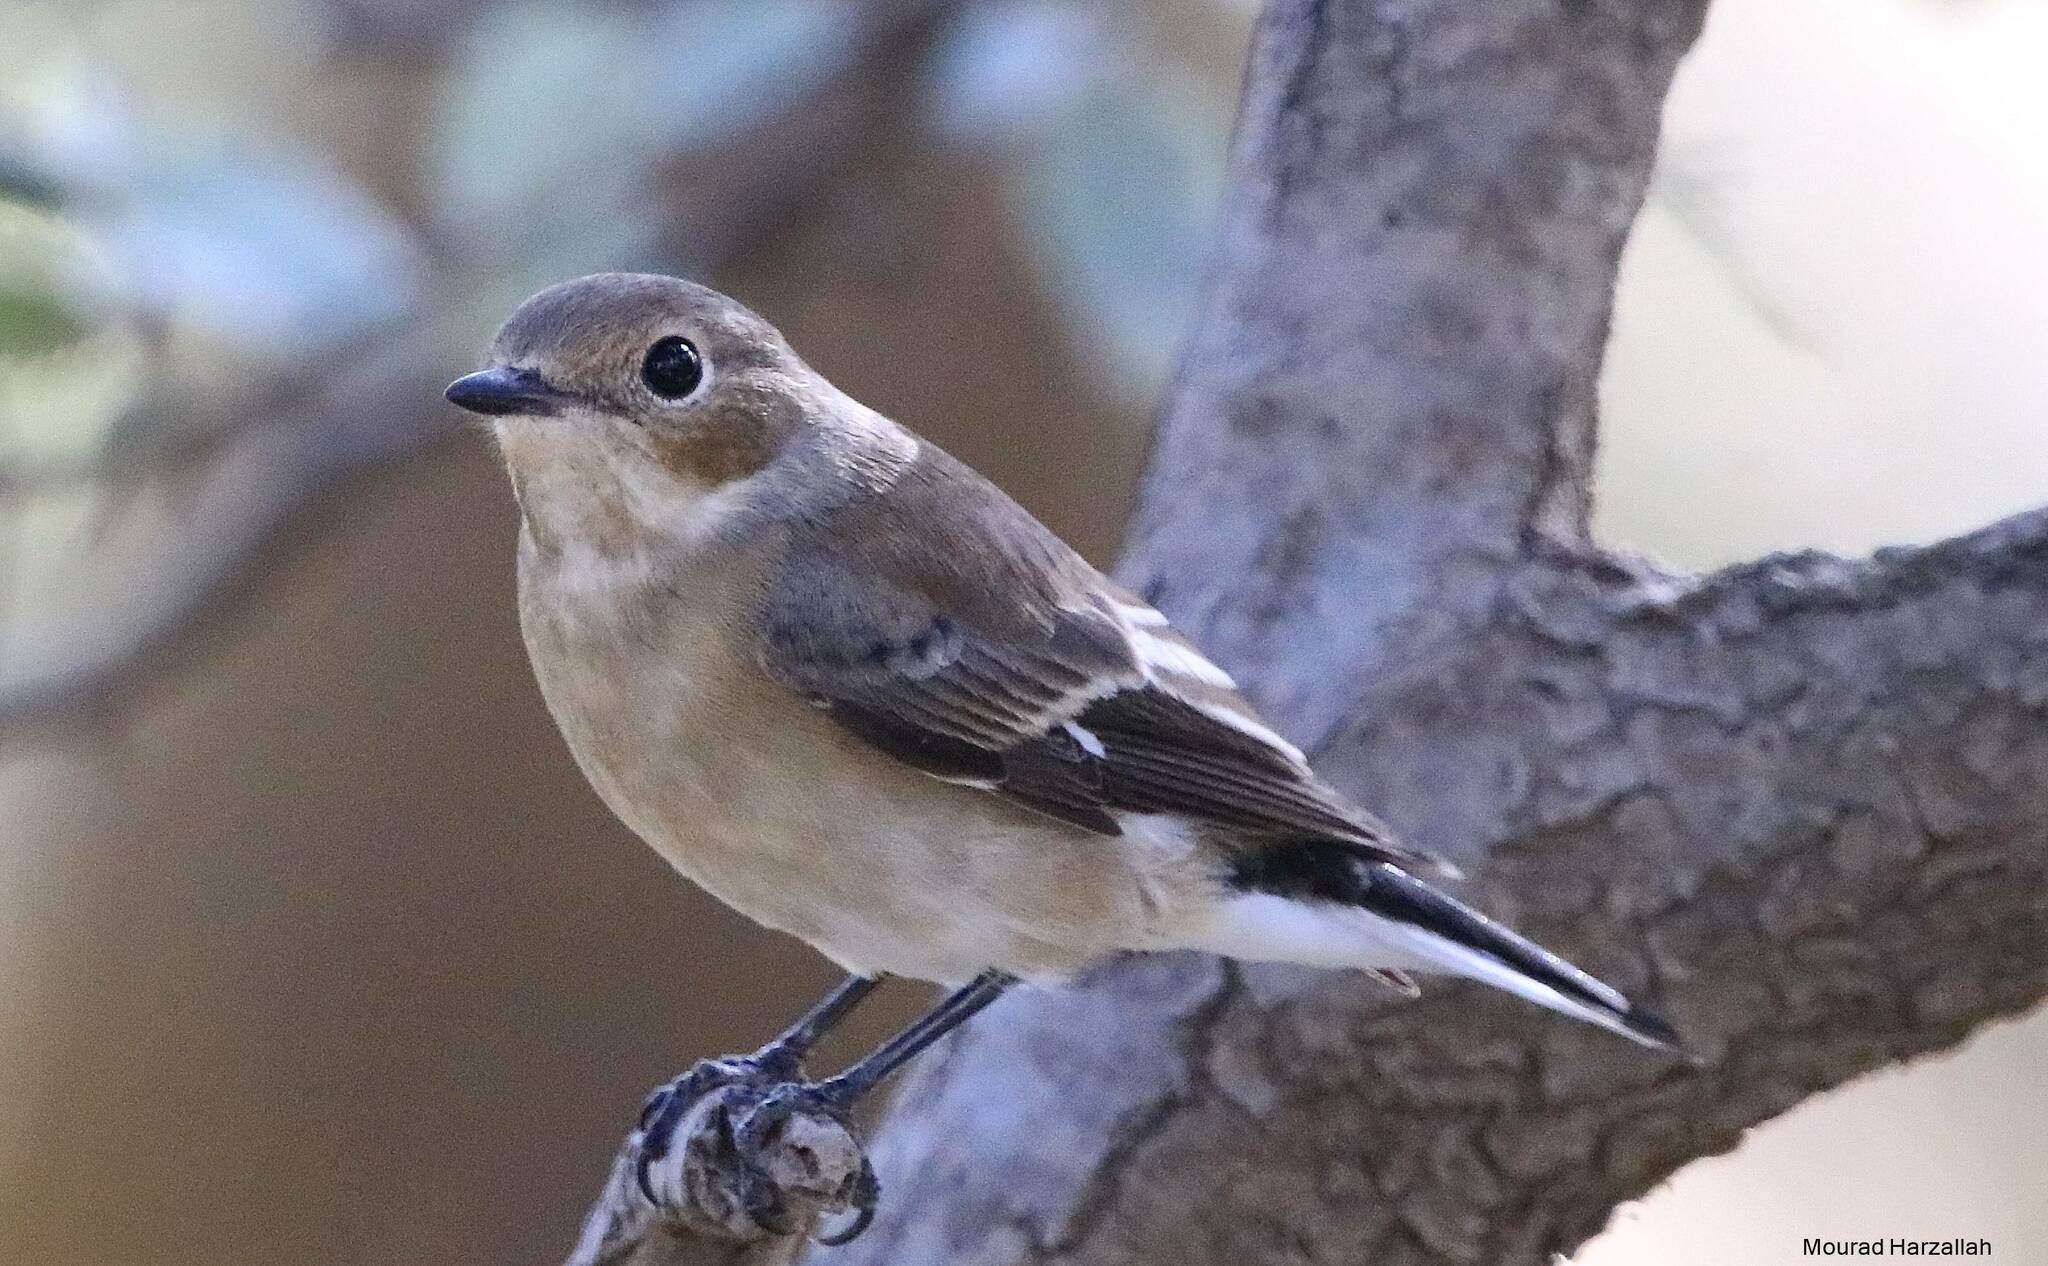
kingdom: Animalia
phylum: Chordata
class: Aves
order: Passeriformes
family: Muscicapidae
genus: Ficedula
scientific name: Ficedula speculigera
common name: Atlas pied flycatcher
